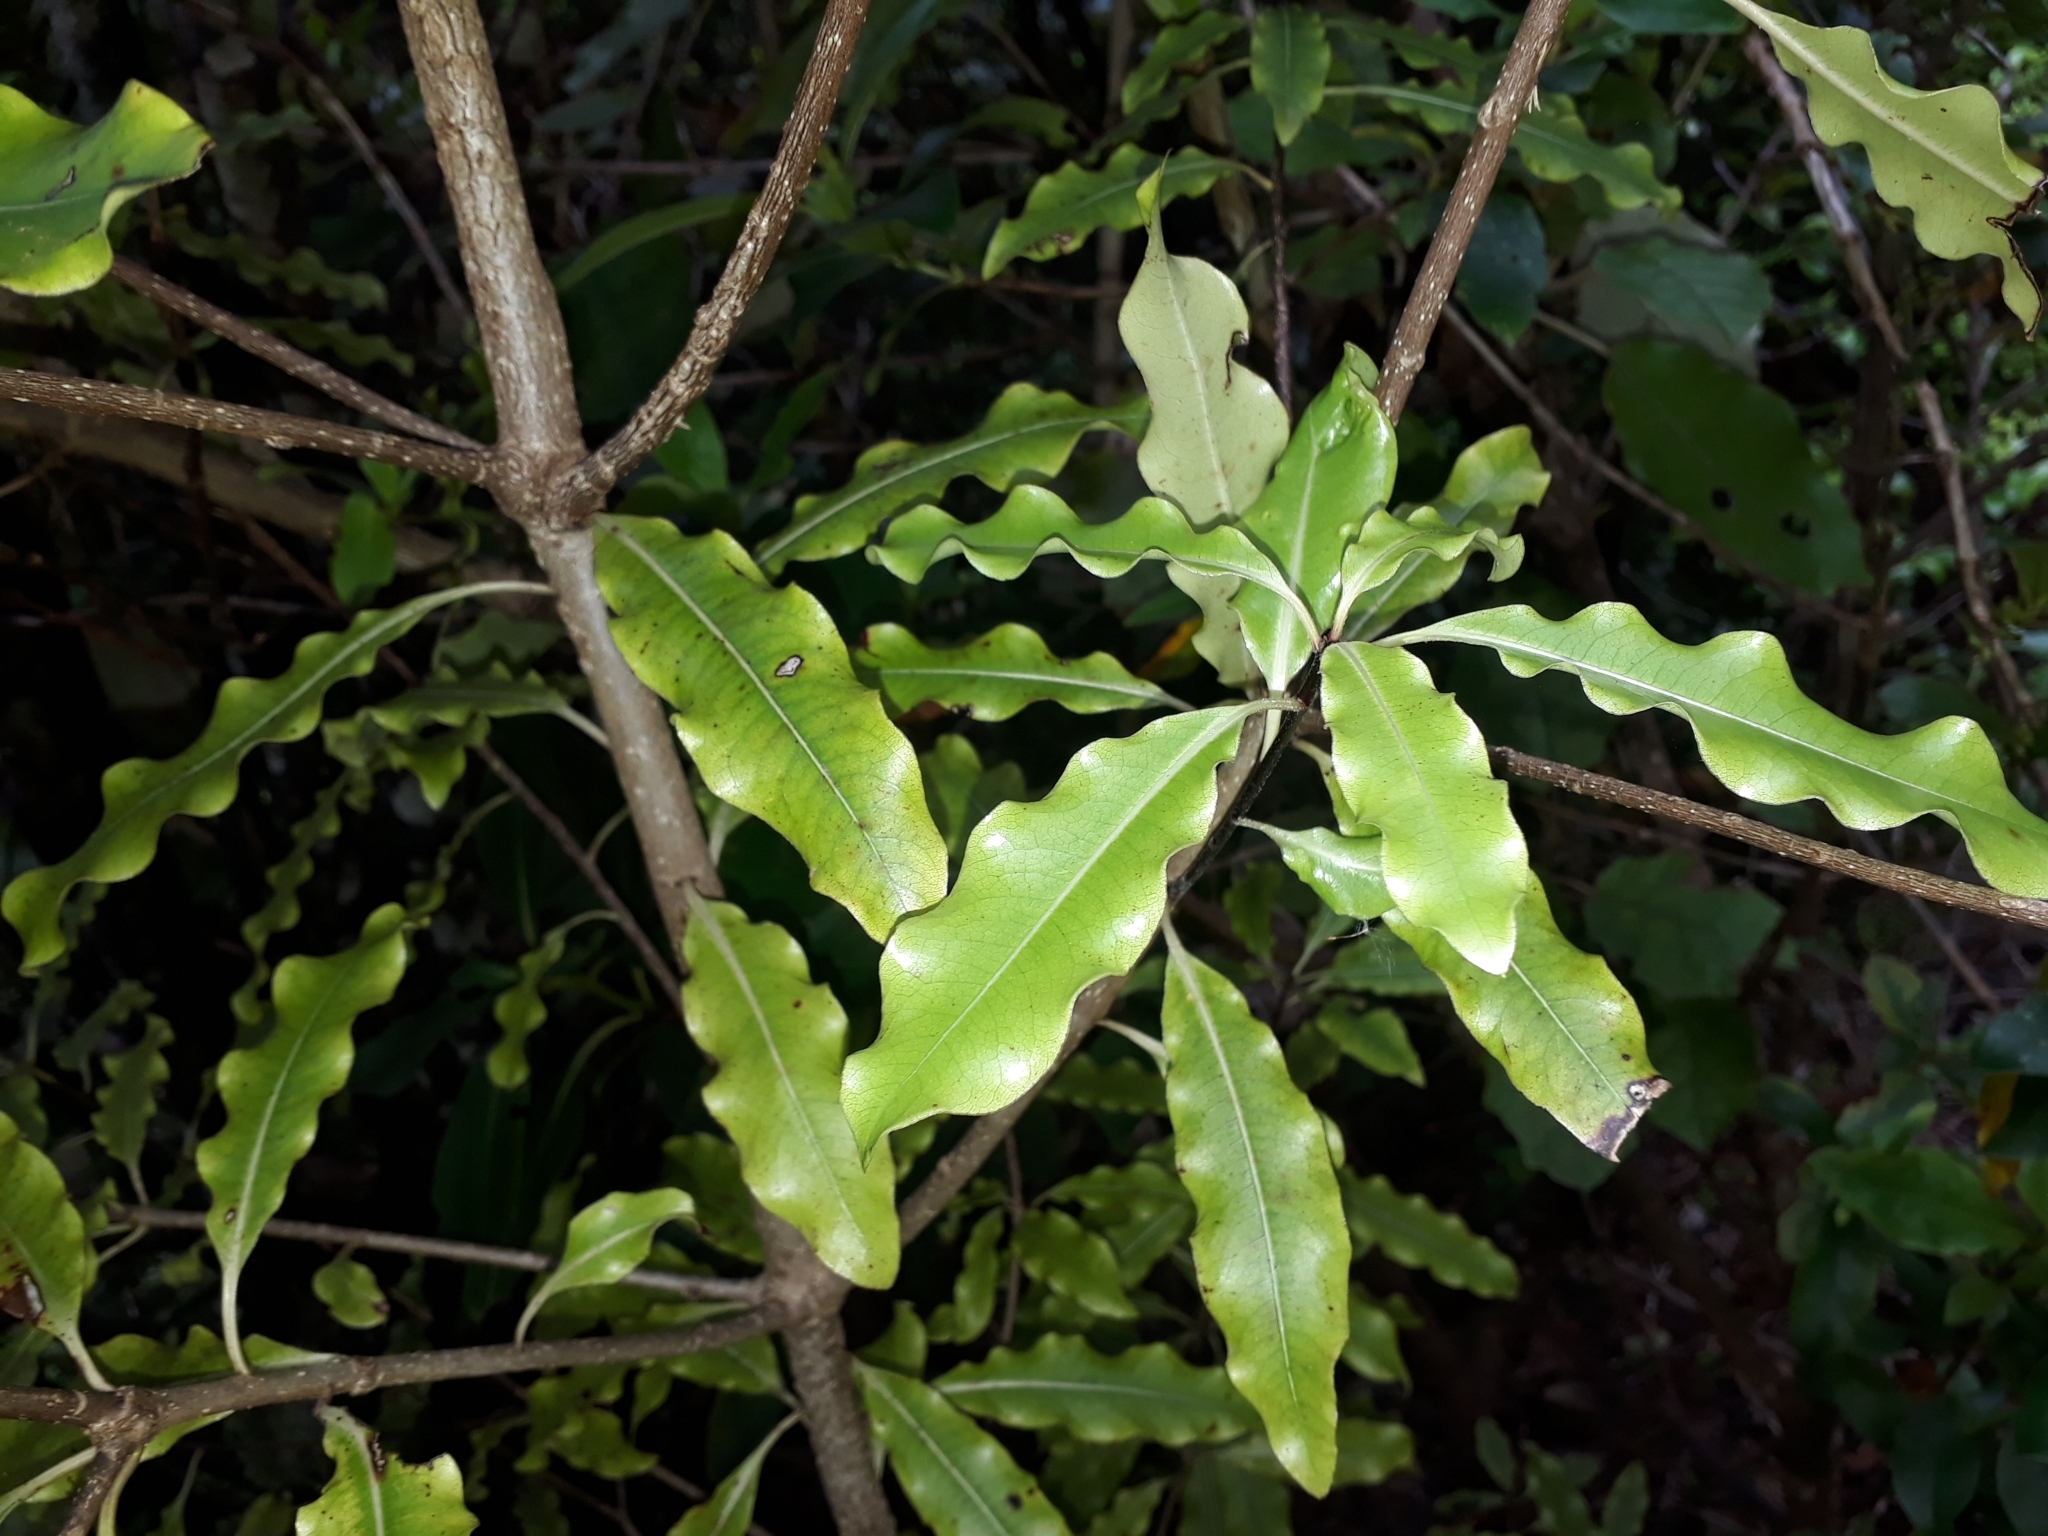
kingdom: Plantae
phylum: Tracheophyta
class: Magnoliopsida
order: Apiales
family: Pittosporaceae
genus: Pittosporum
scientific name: Pittosporum eugenioides
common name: Lemonwood
